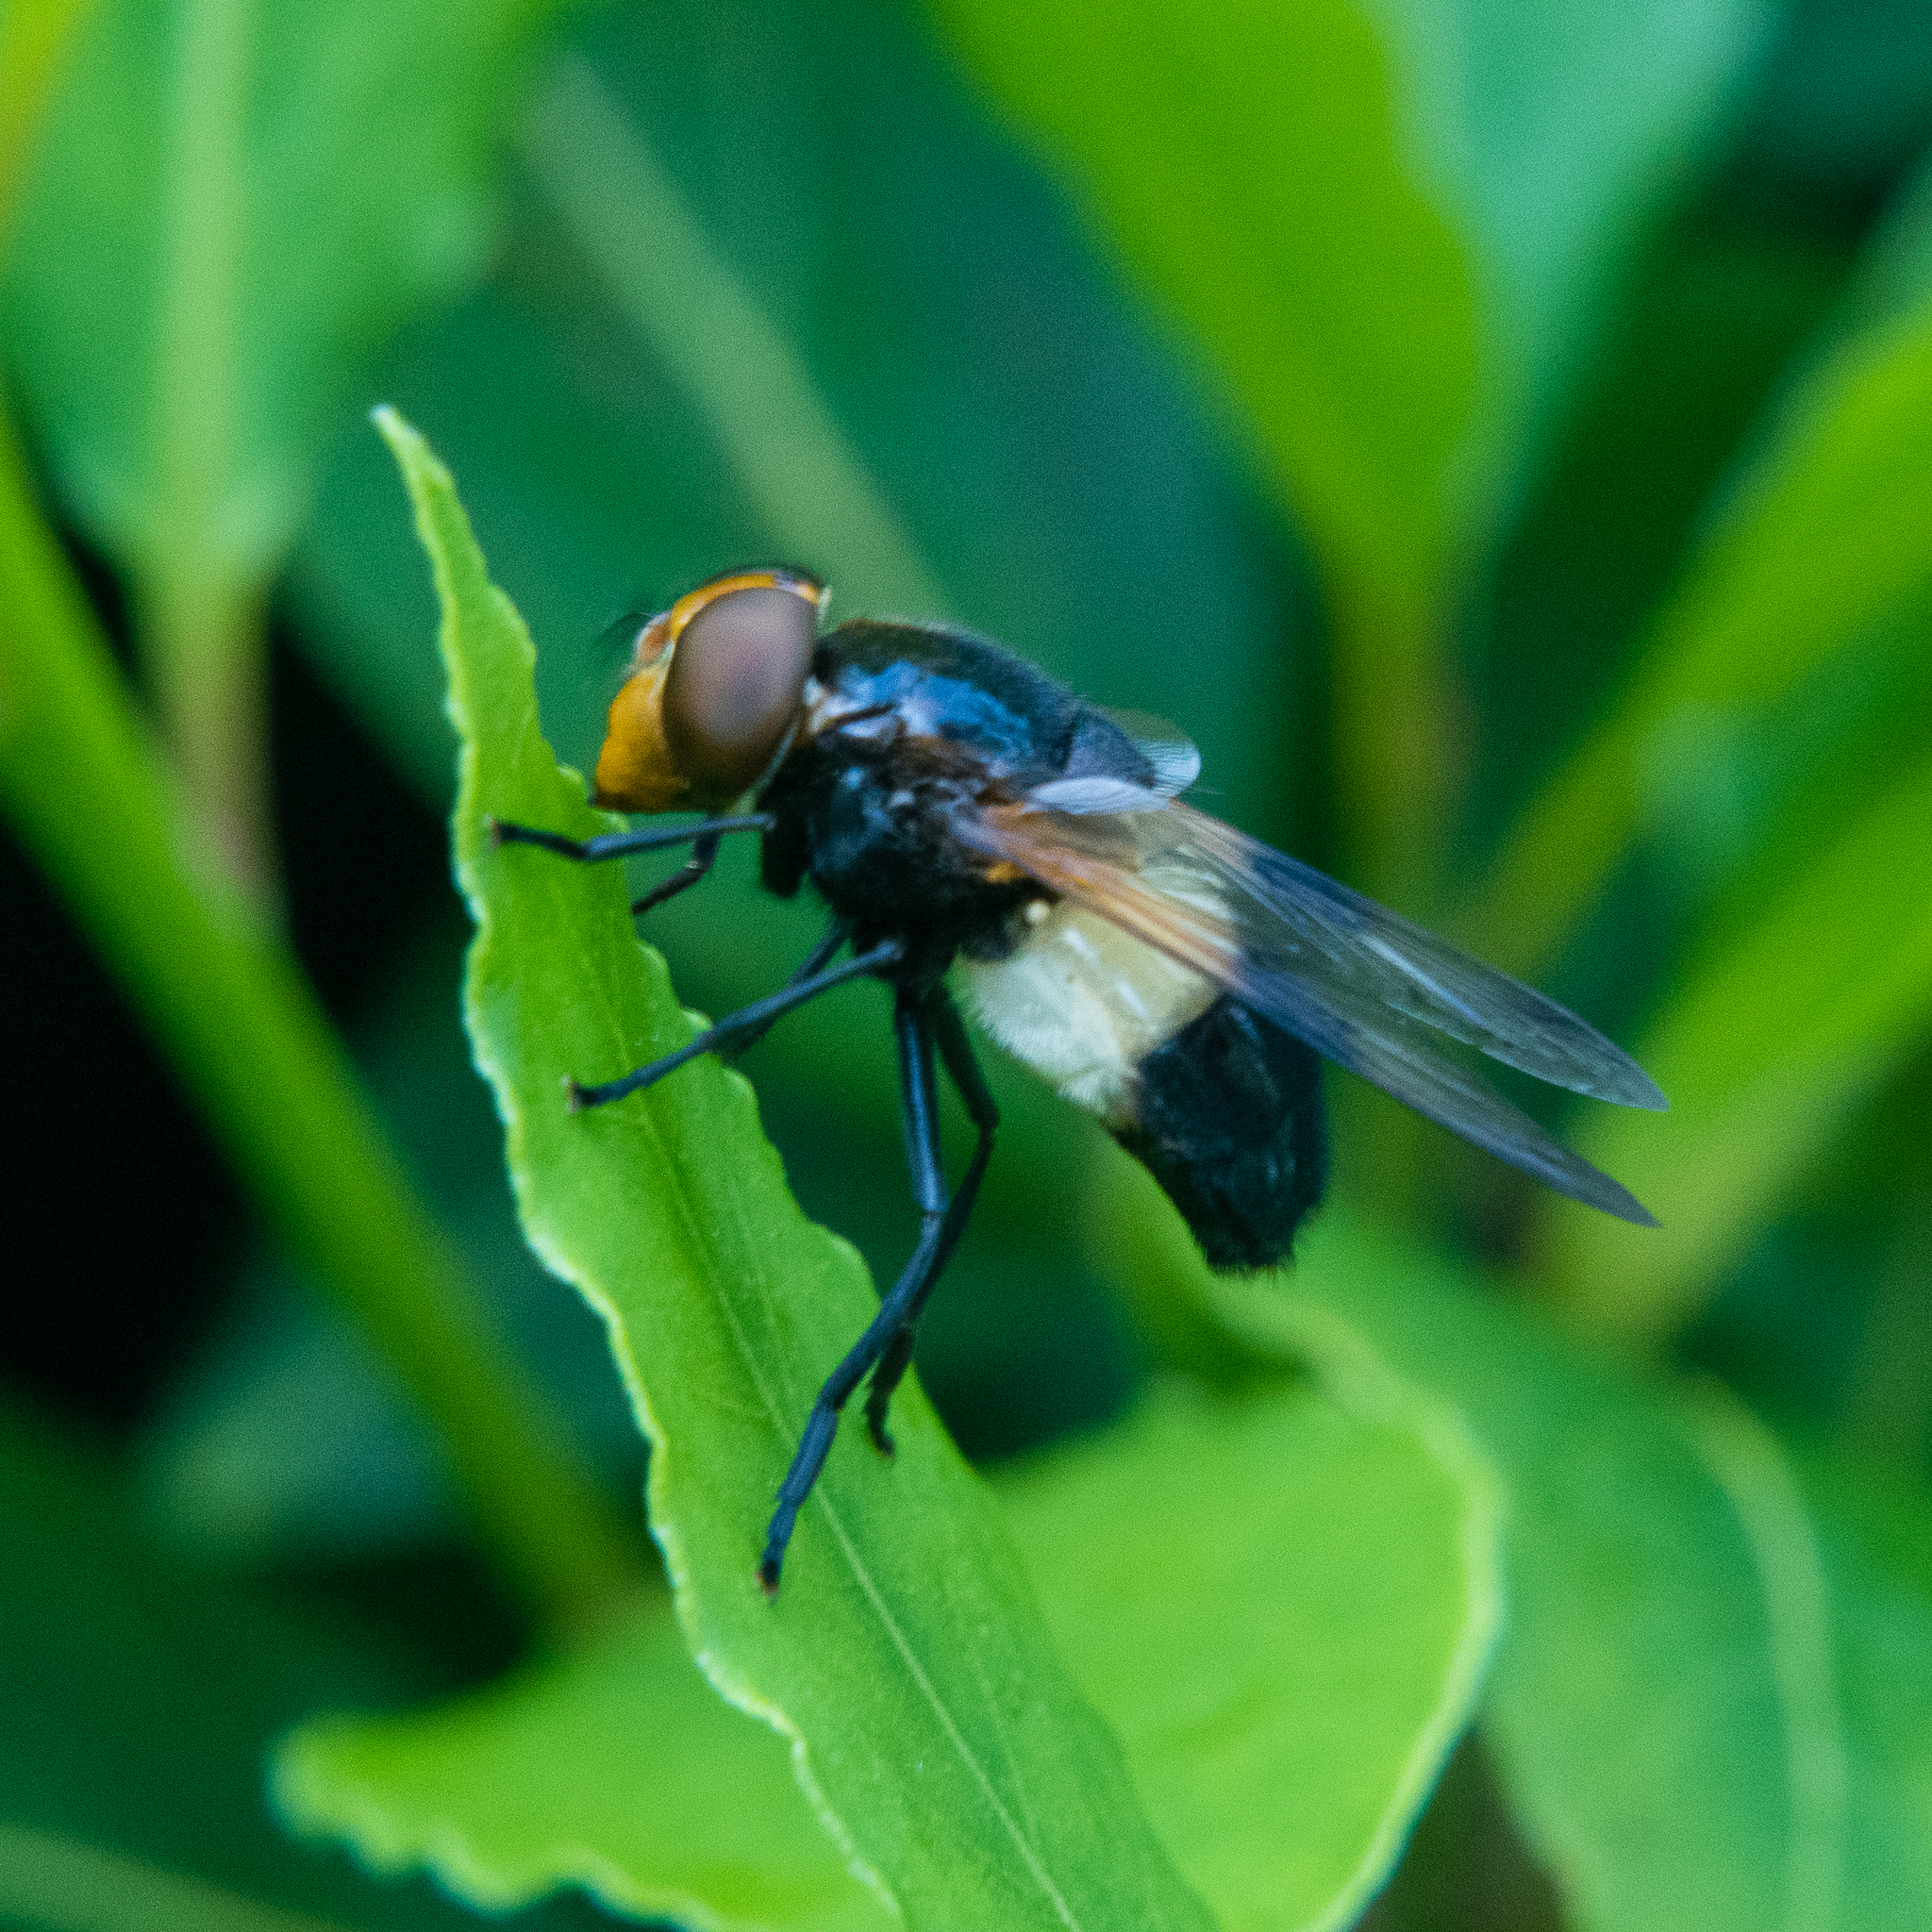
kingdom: Animalia
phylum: Arthropoda
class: Insecta
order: Diptera
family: Syrphidae
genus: Volucella
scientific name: Volucella pellucens
